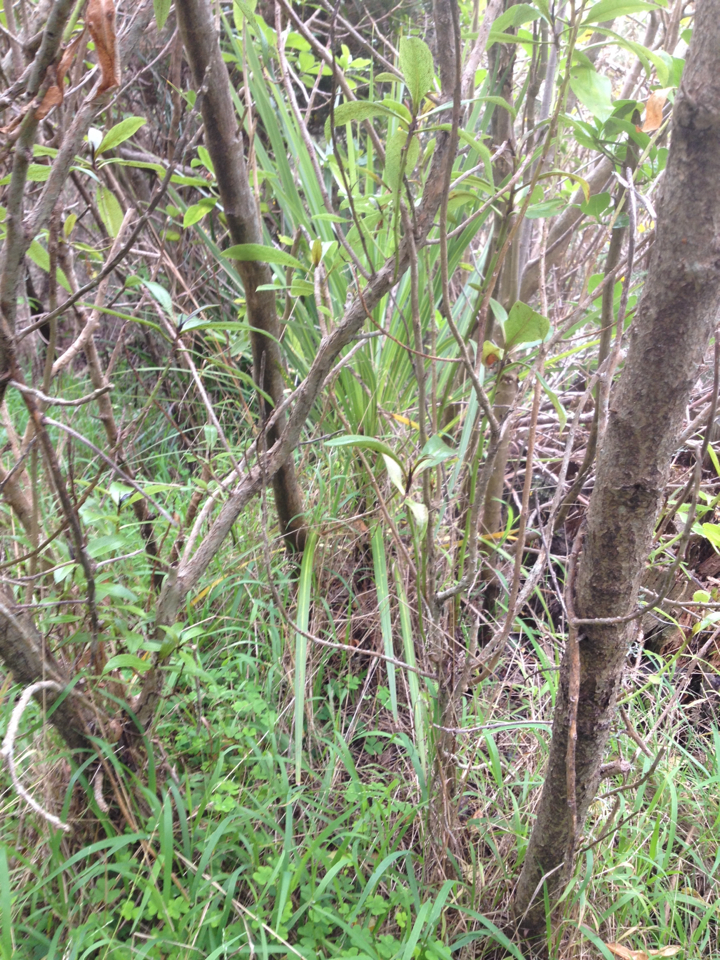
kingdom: Plantae
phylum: Tracheophyta
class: Liliopsida
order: Asparagales
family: Asparagaceae
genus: Cordyline
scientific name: Cordyline australis
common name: Cabbage-palm
